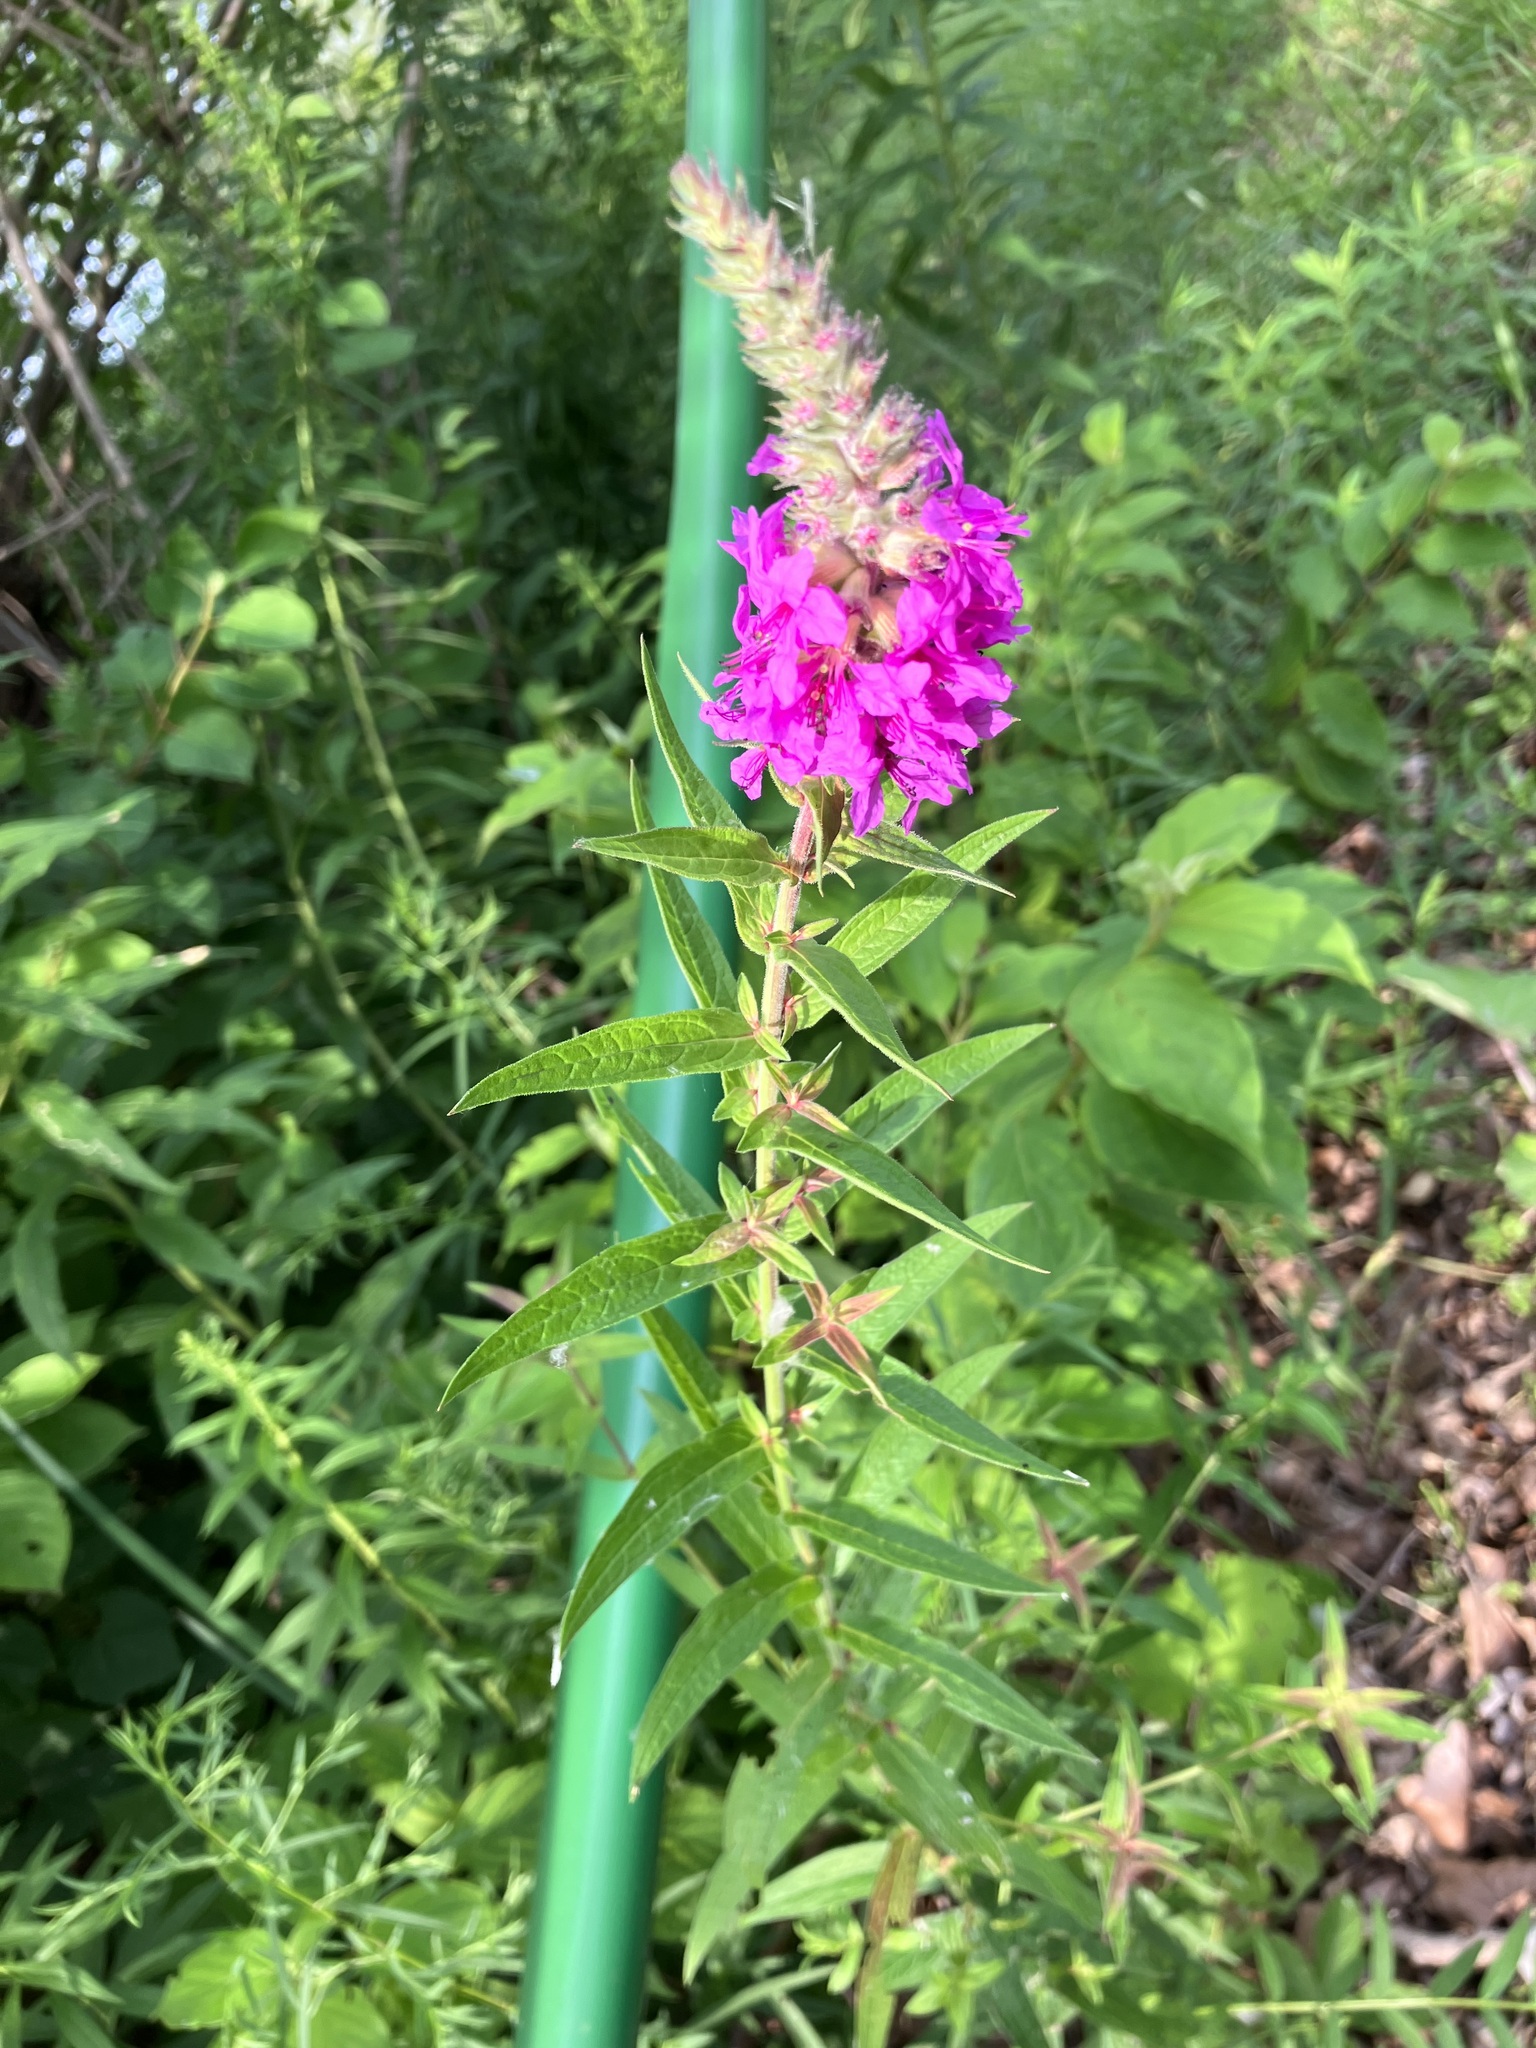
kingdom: Plantae
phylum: Tracheophyta
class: Magnoliopsida
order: Myrtales
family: Lythraceae
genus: Lythrum
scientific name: Lythrum salicaria
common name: Purple loosestrife
